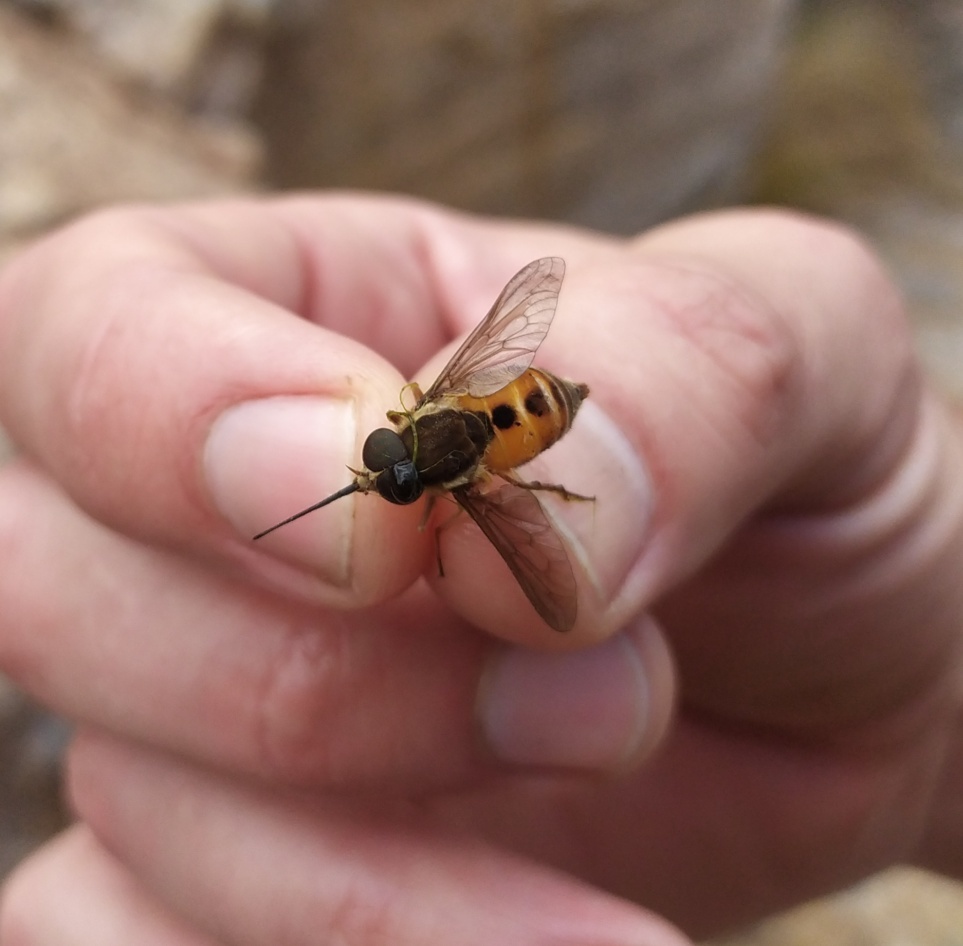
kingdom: Animalia
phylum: Arthropoda
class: Insecta
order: Diptera
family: Tabanidae
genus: Philoliche
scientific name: Philoliche aethiopica
